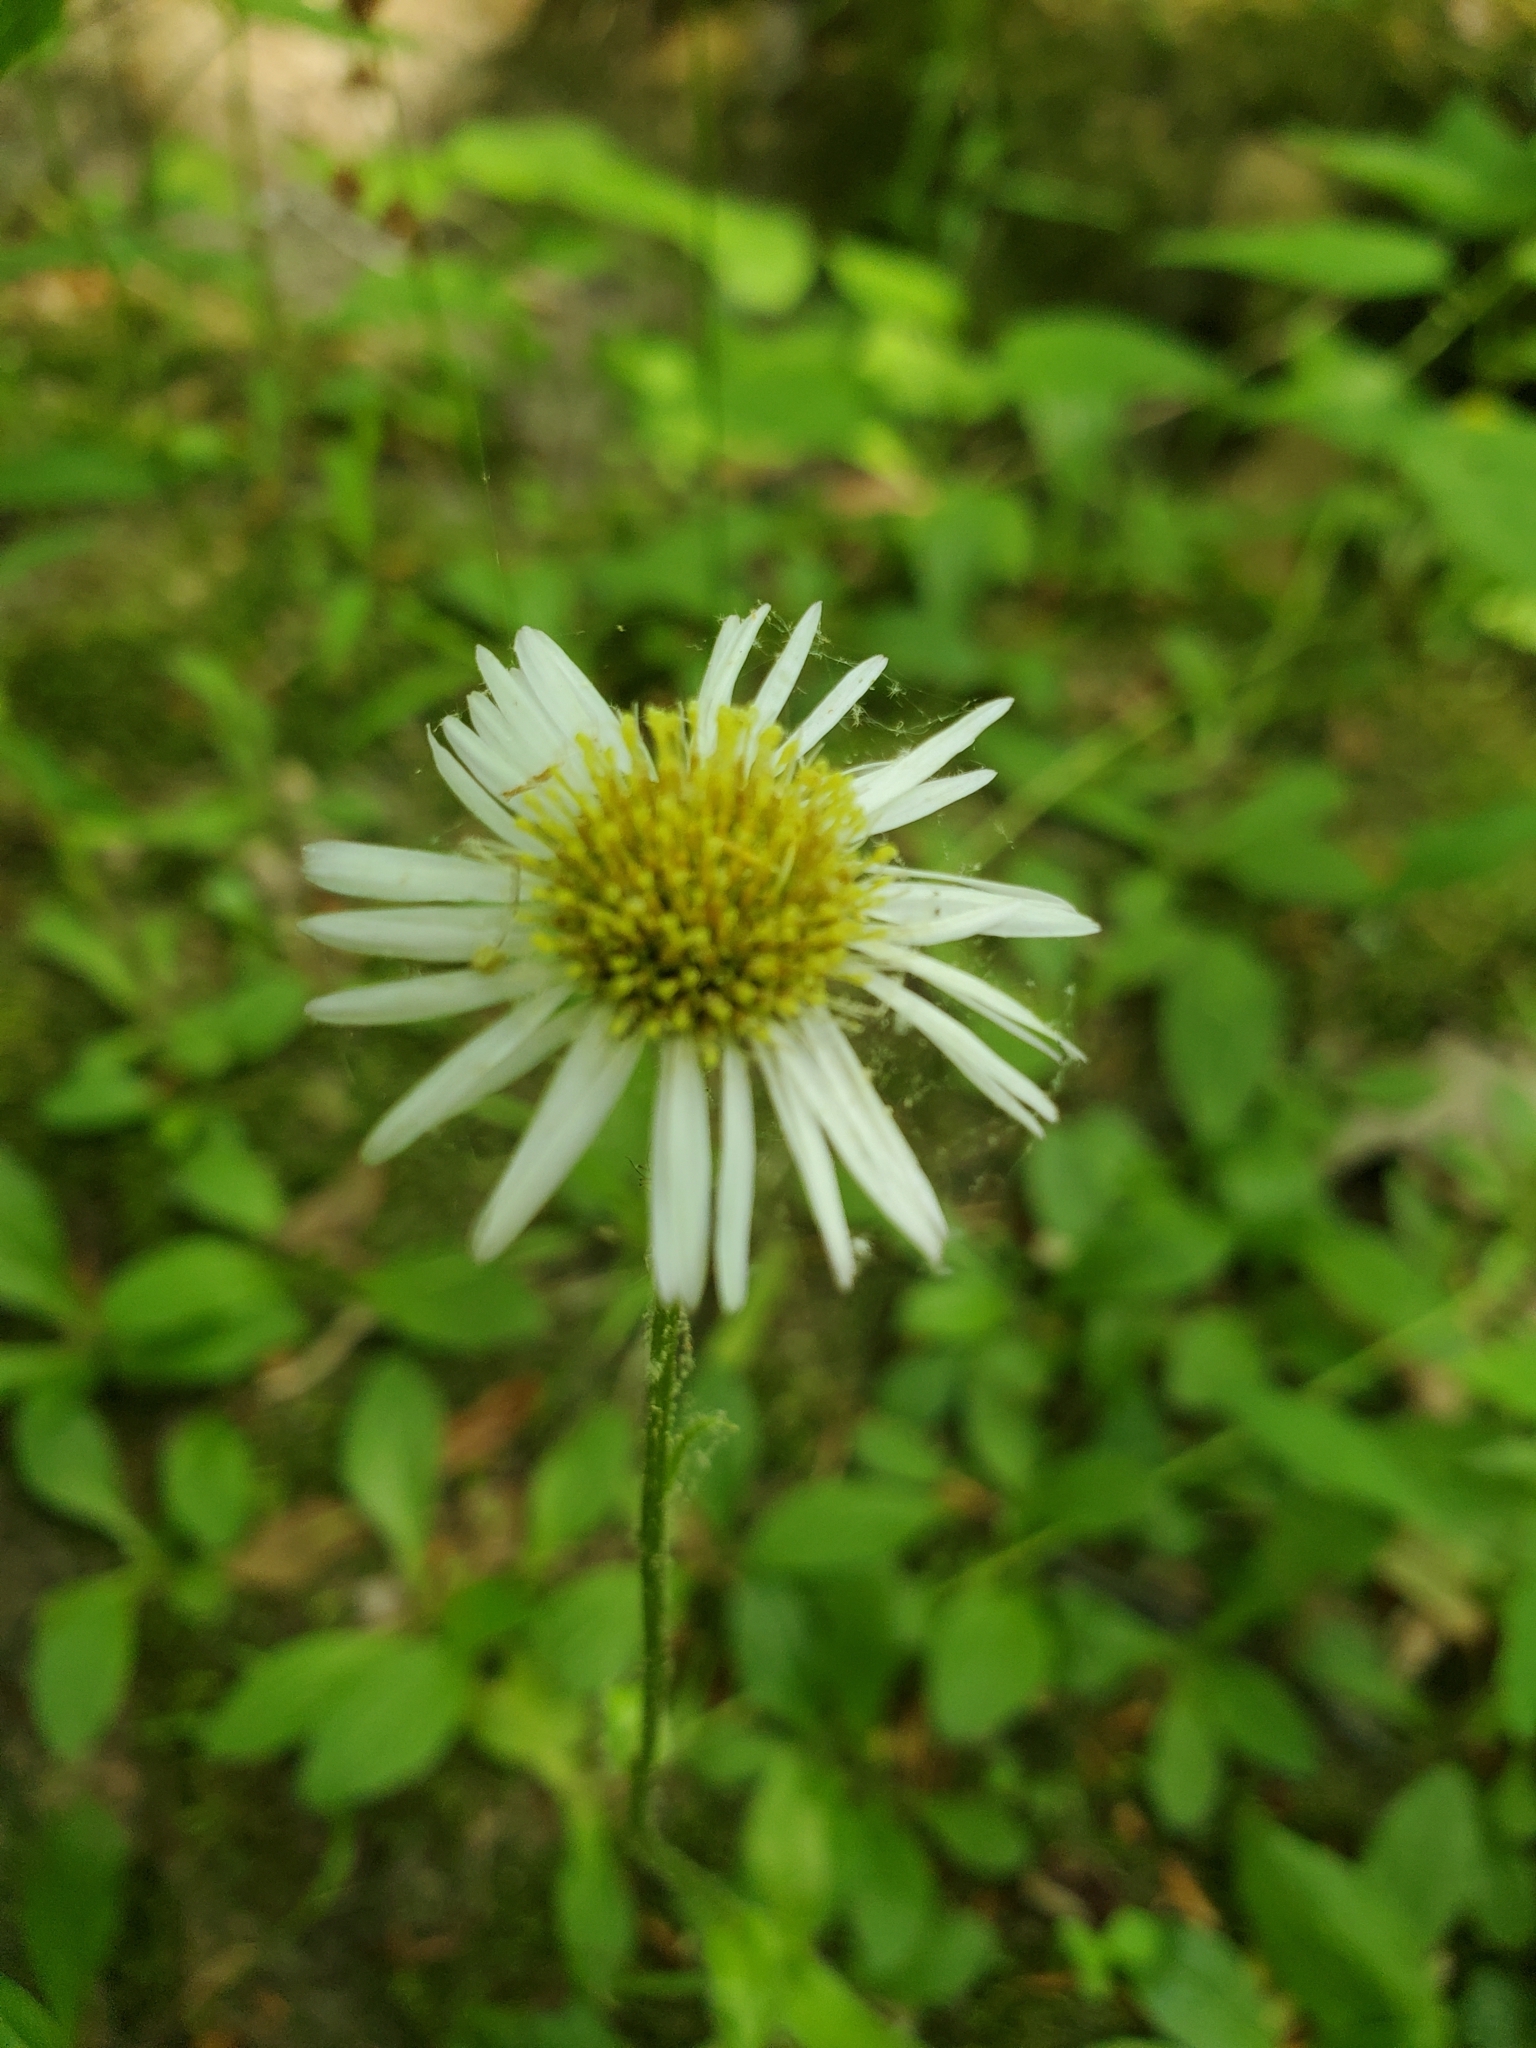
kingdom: Plantae
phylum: Tracheophyta
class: Magnoliopsida
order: Asterales
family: Asteraceae
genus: Erigeron
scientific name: Erigeron pulchellus
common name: Hairy fleabane
